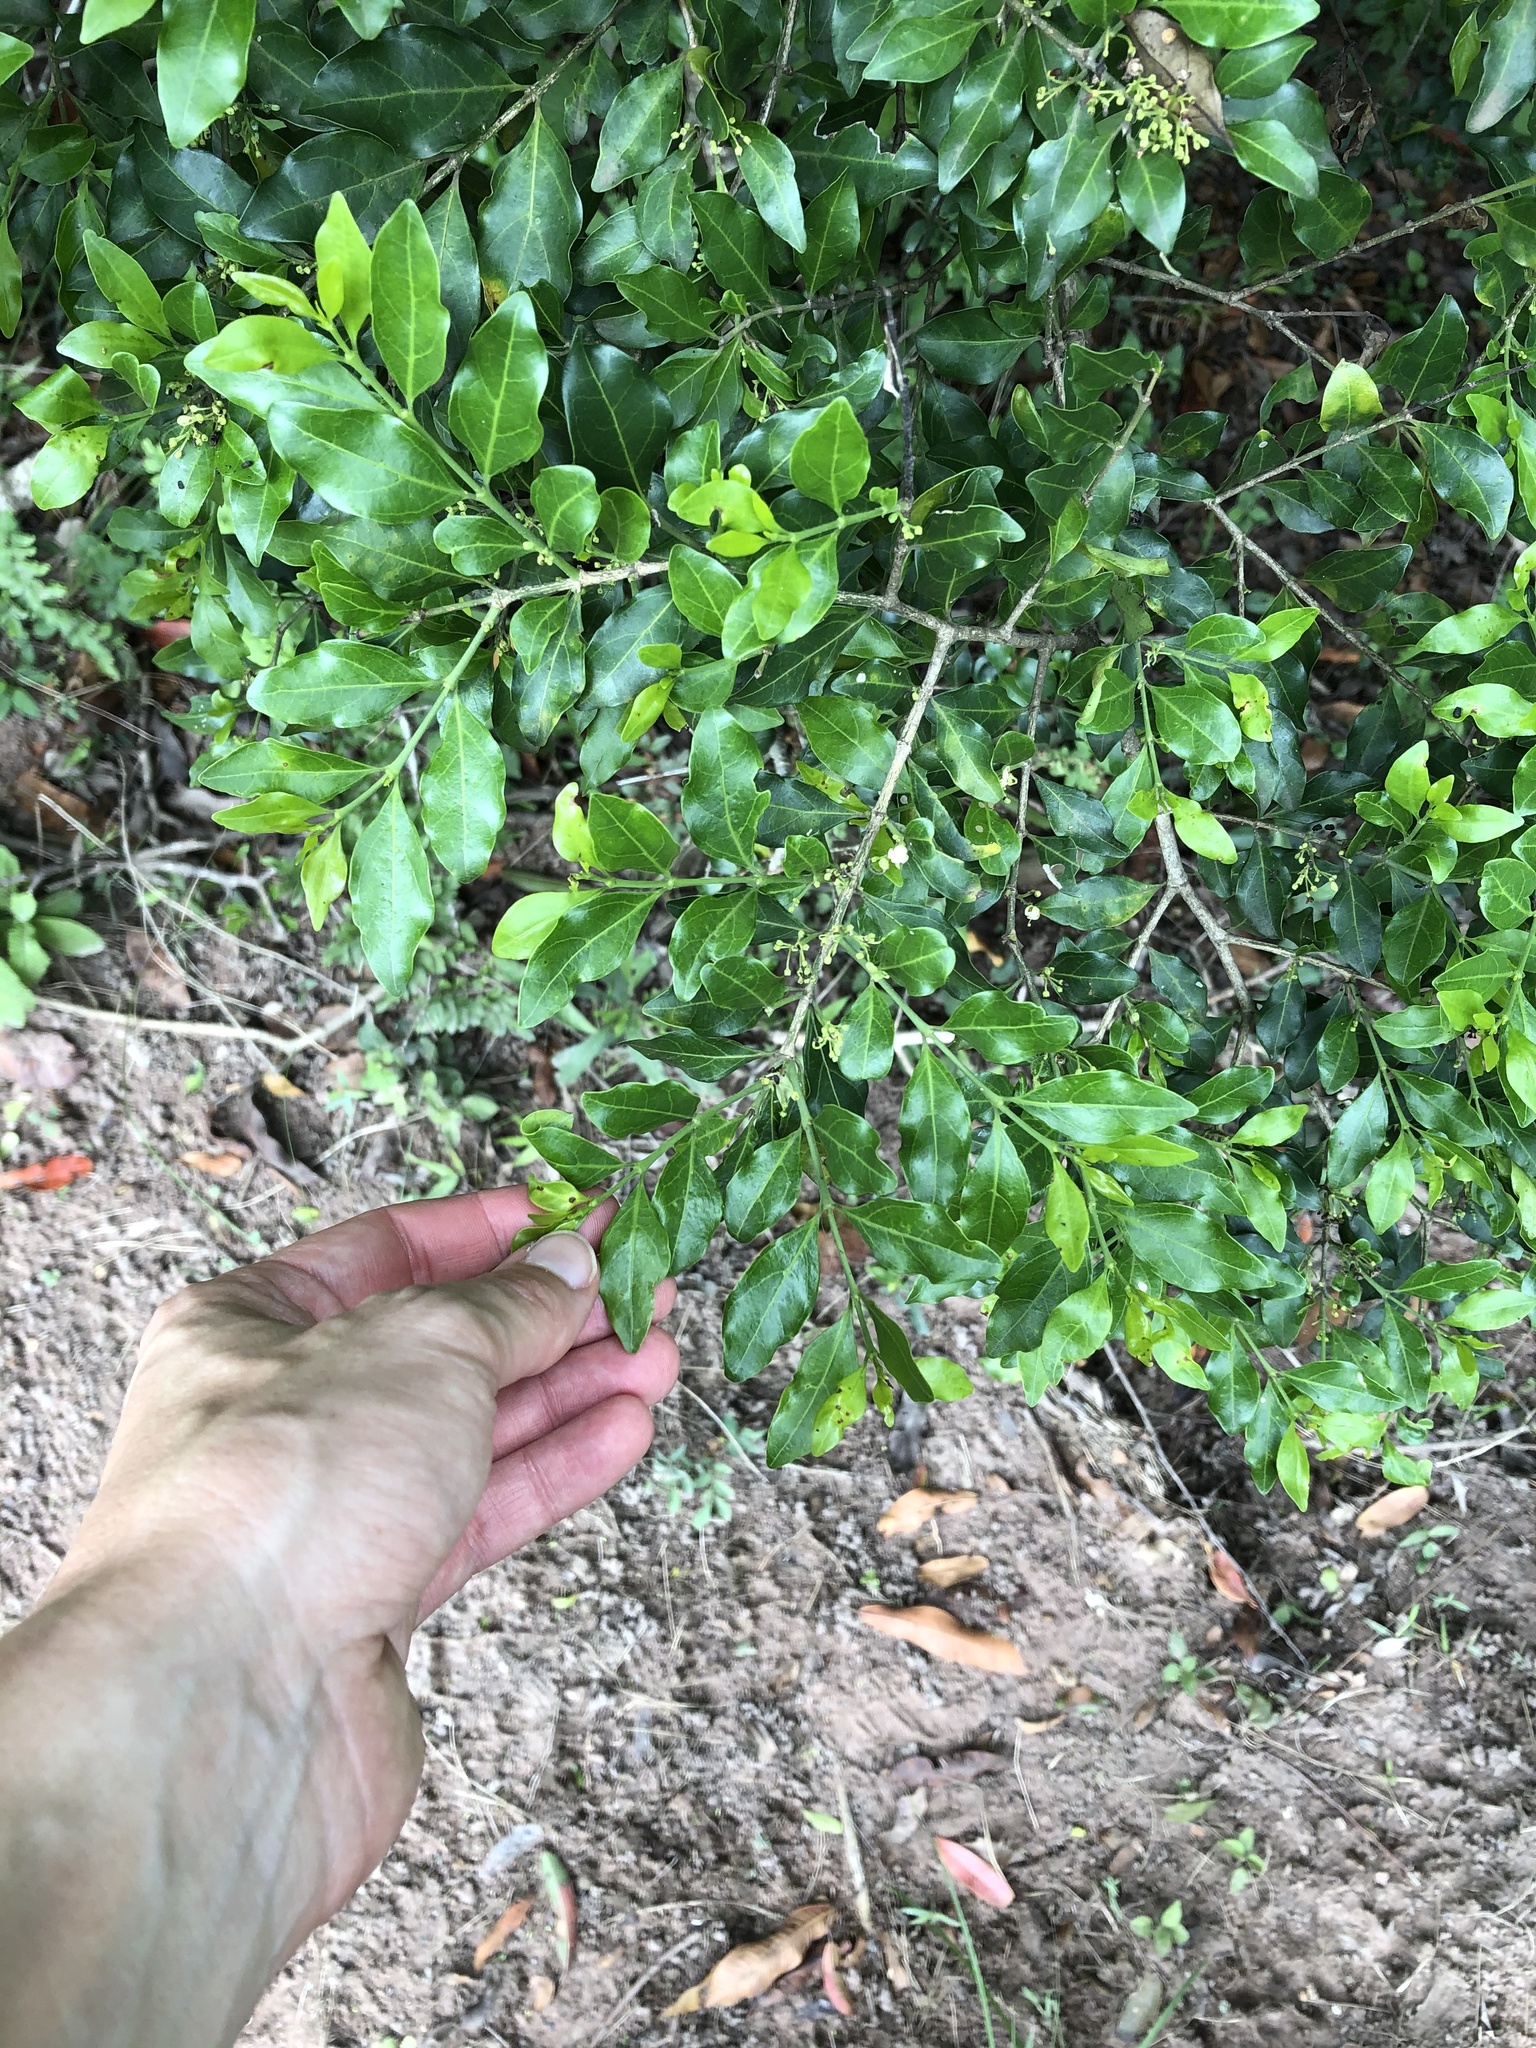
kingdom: Plantae
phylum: Tracheophyta
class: Magnoliopsida
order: Gentianales
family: Rubiaceae
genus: Psydrax
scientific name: Psydrax locuples
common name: Sand quar
